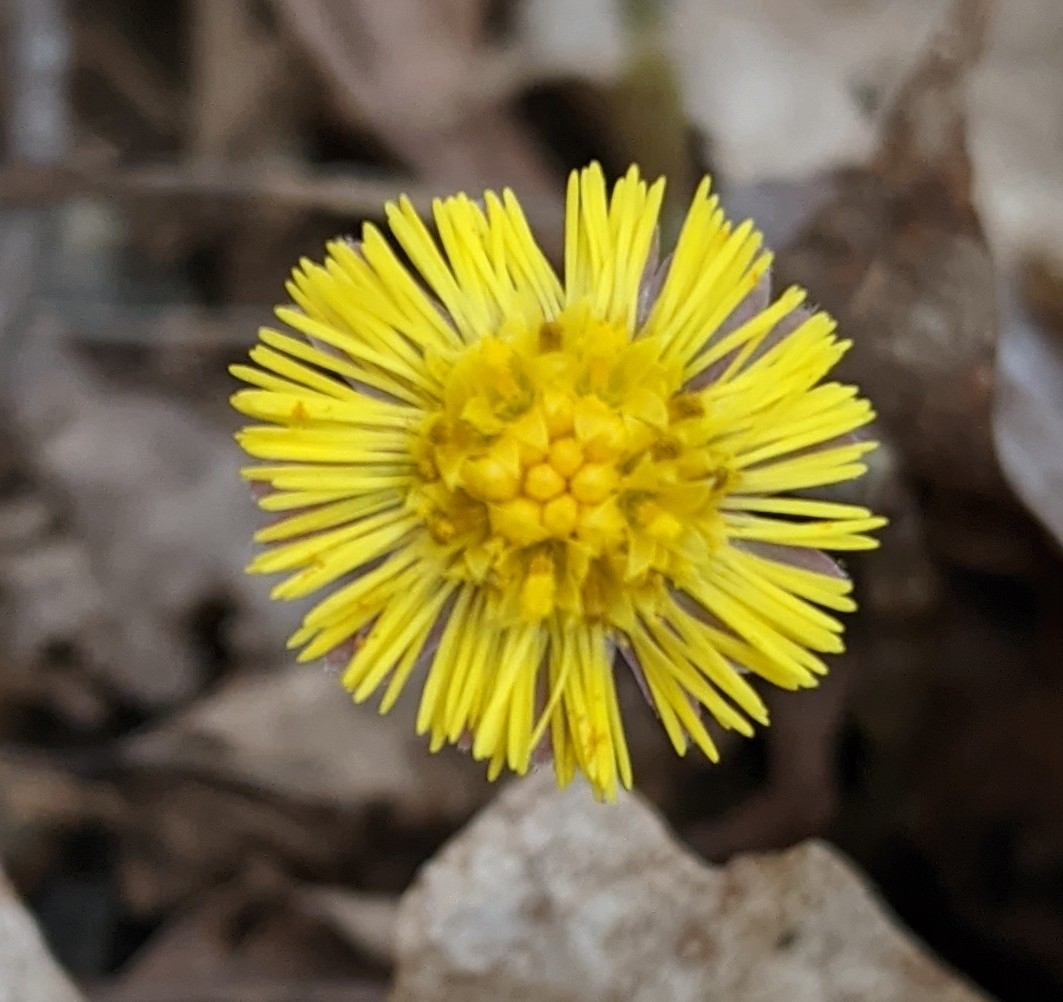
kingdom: Plantae
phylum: Tracheophyta
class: Magnoliopsida
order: Asterales
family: Asteraceae
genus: Tussilago
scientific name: Tussilago farfara
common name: Coltsfoot
